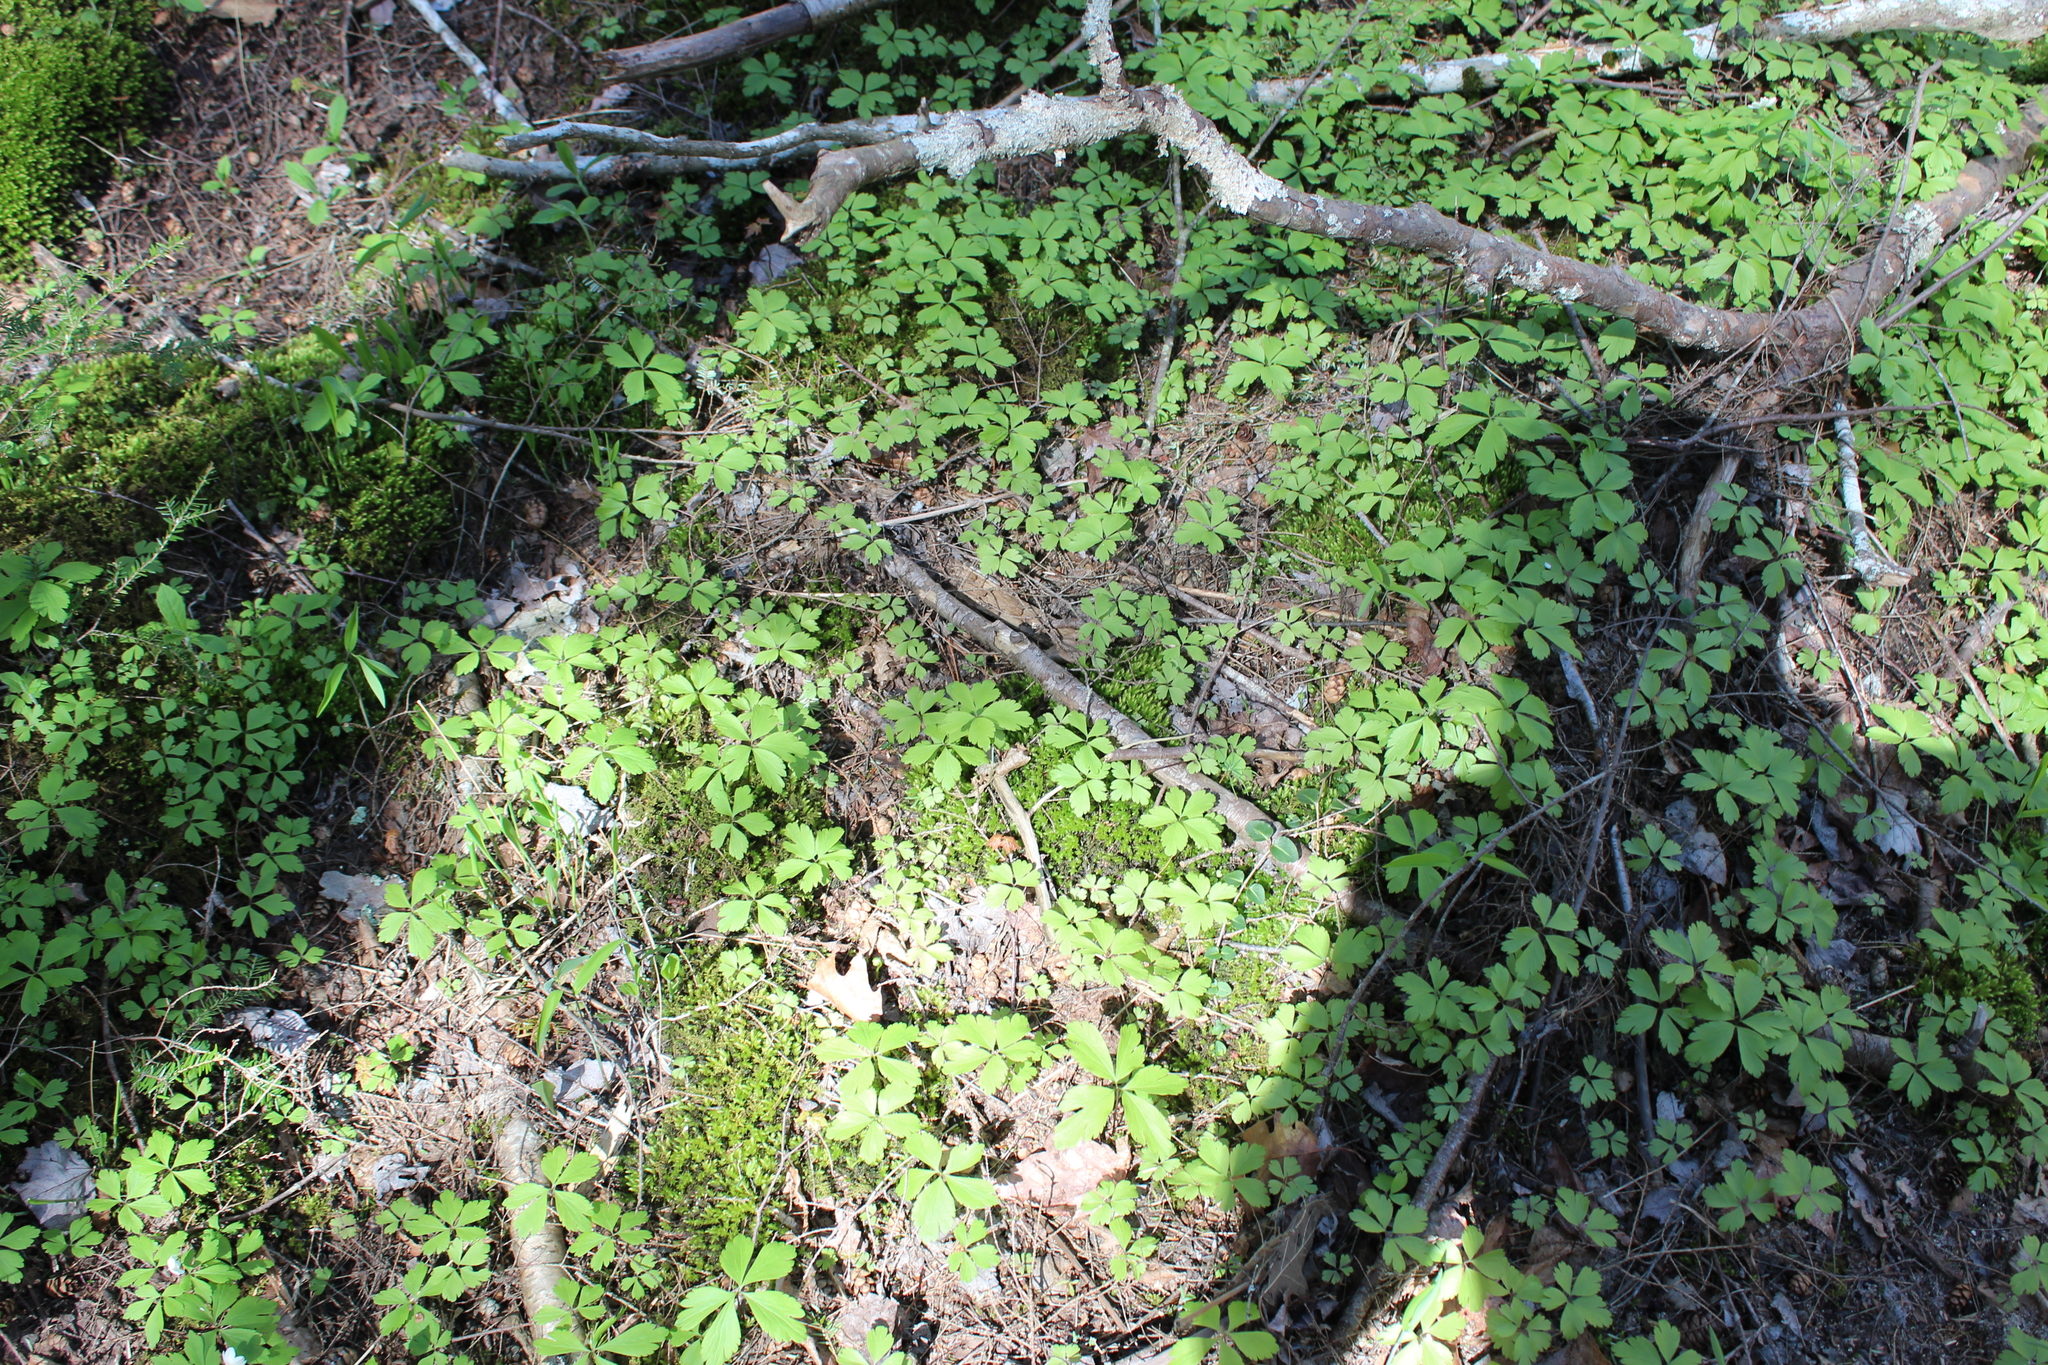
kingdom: Plantae
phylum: Tracheophyta
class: Magnoliopsida
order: Ranunculales
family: Ranunculaceae
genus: Anemone
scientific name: Anemone quinquefolia
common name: Wood anemone
